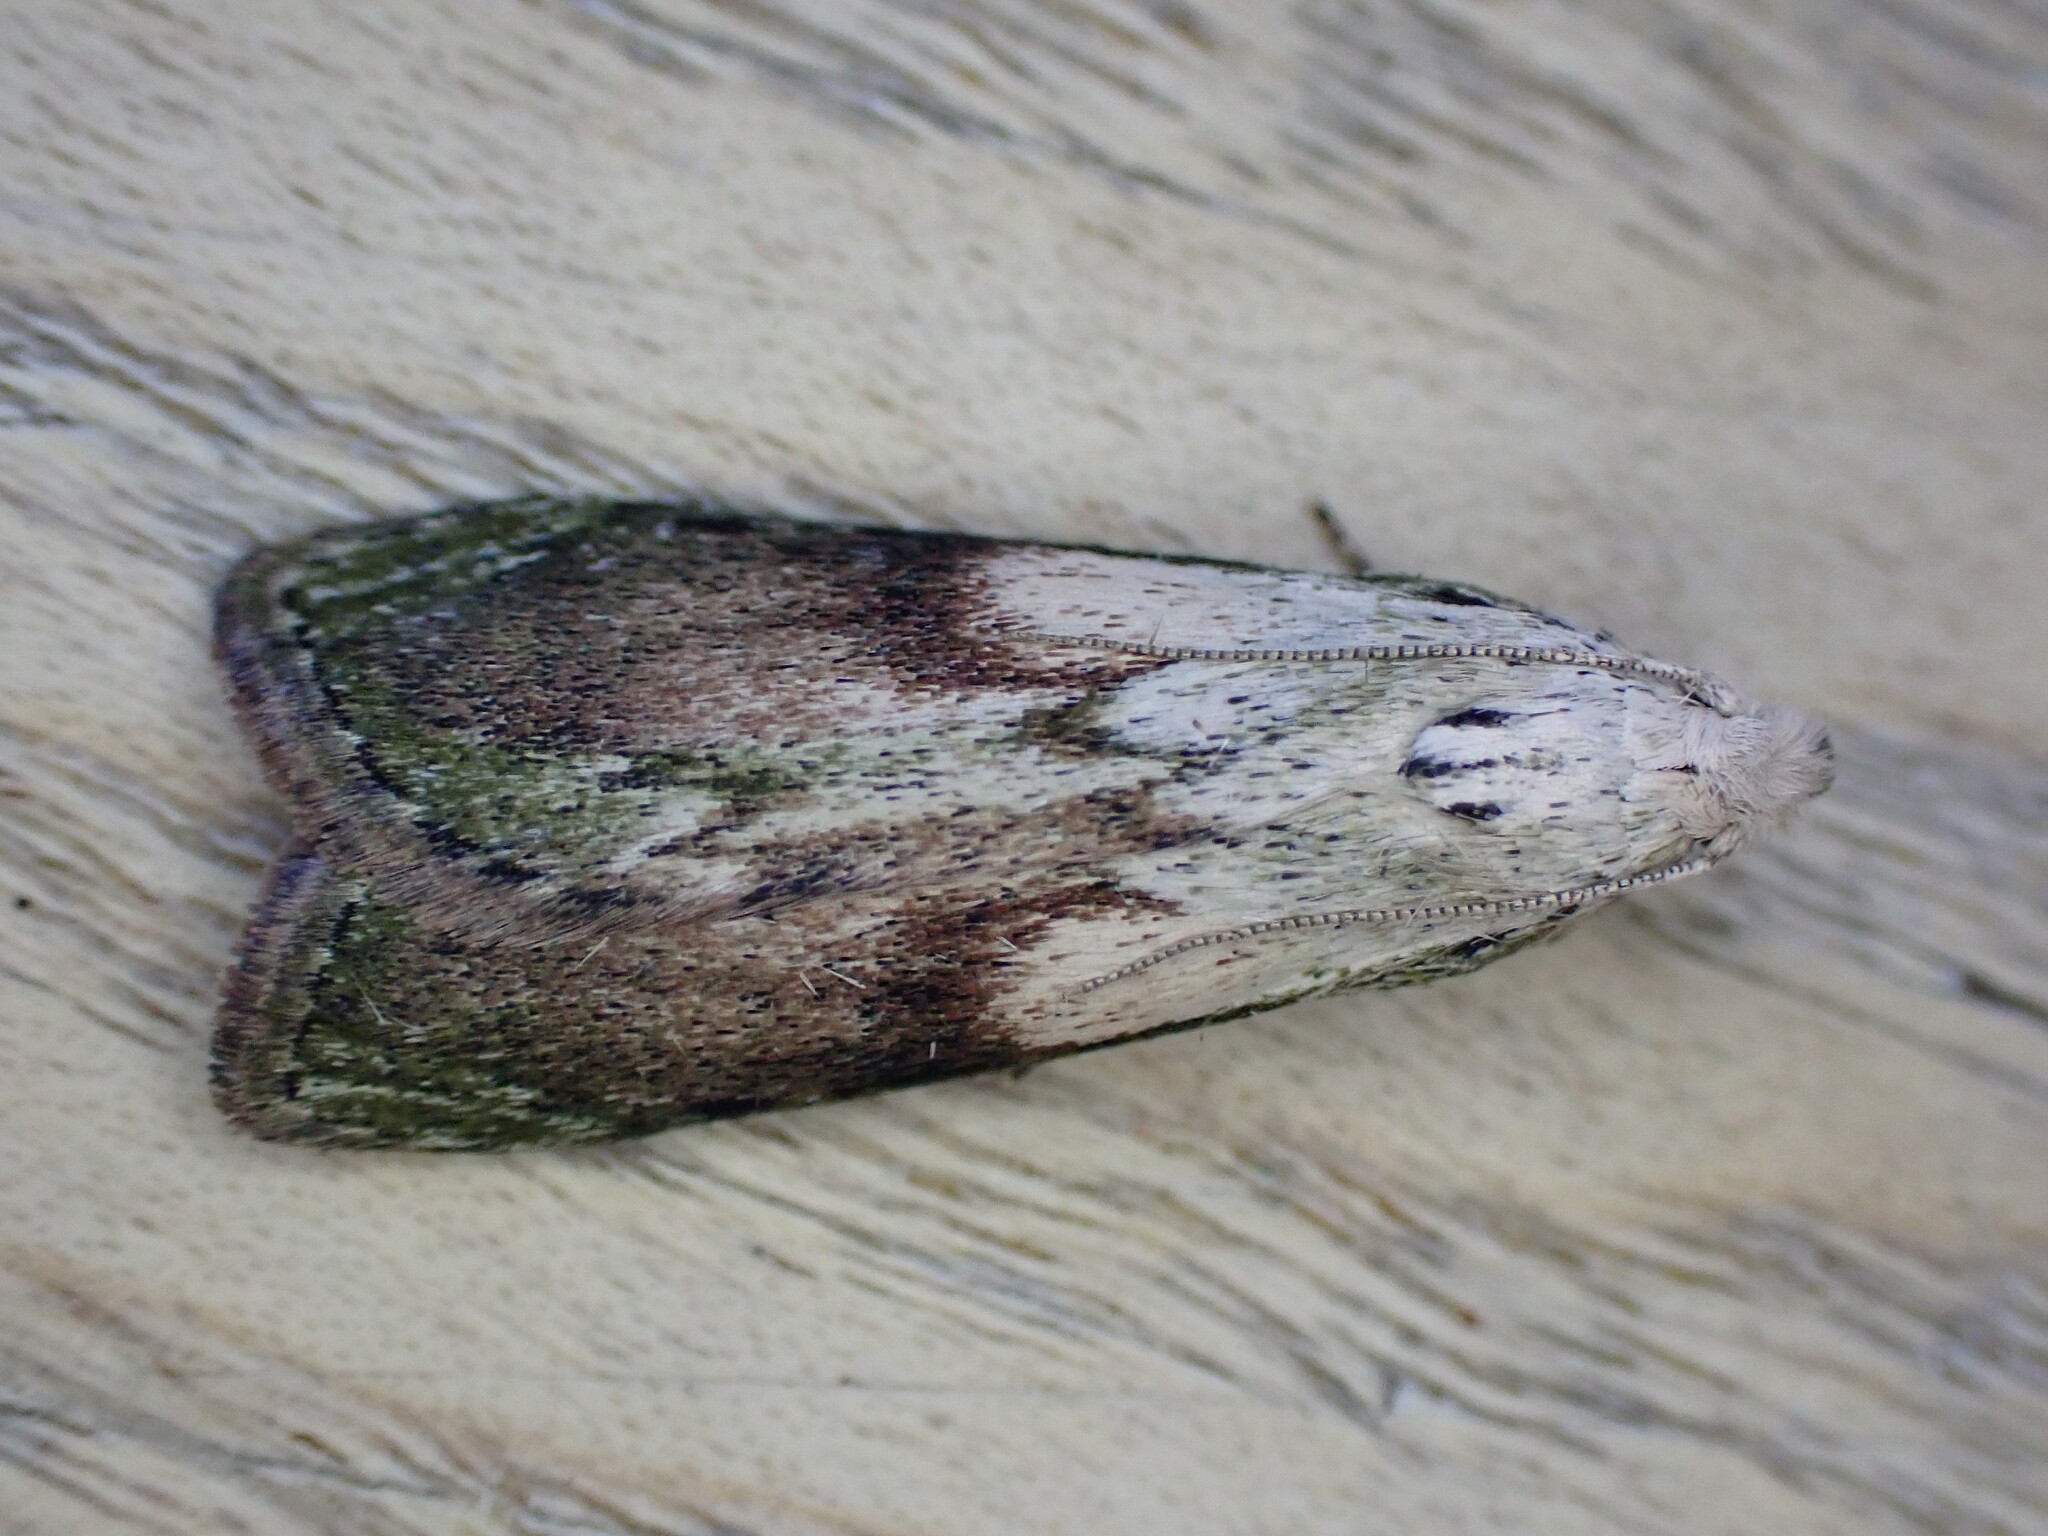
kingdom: Animalia
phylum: Arthropoda
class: Insecta
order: Lepidoptera
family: Pyralidae
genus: Aphomia
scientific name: Aphomia sociella
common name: Bee moth
